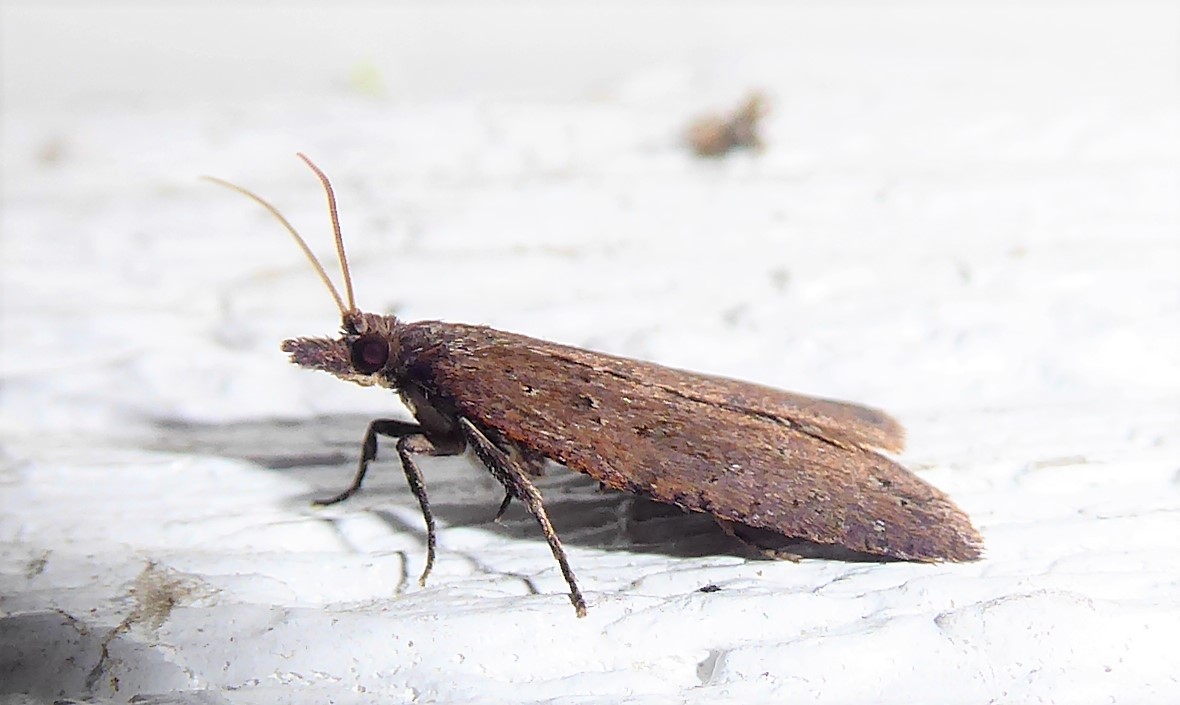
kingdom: Animalia
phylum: Arthropoda
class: Insecta
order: Lepidoptera
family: Tortricidae
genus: Planotortrix
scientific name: Planotortrix notophaea
